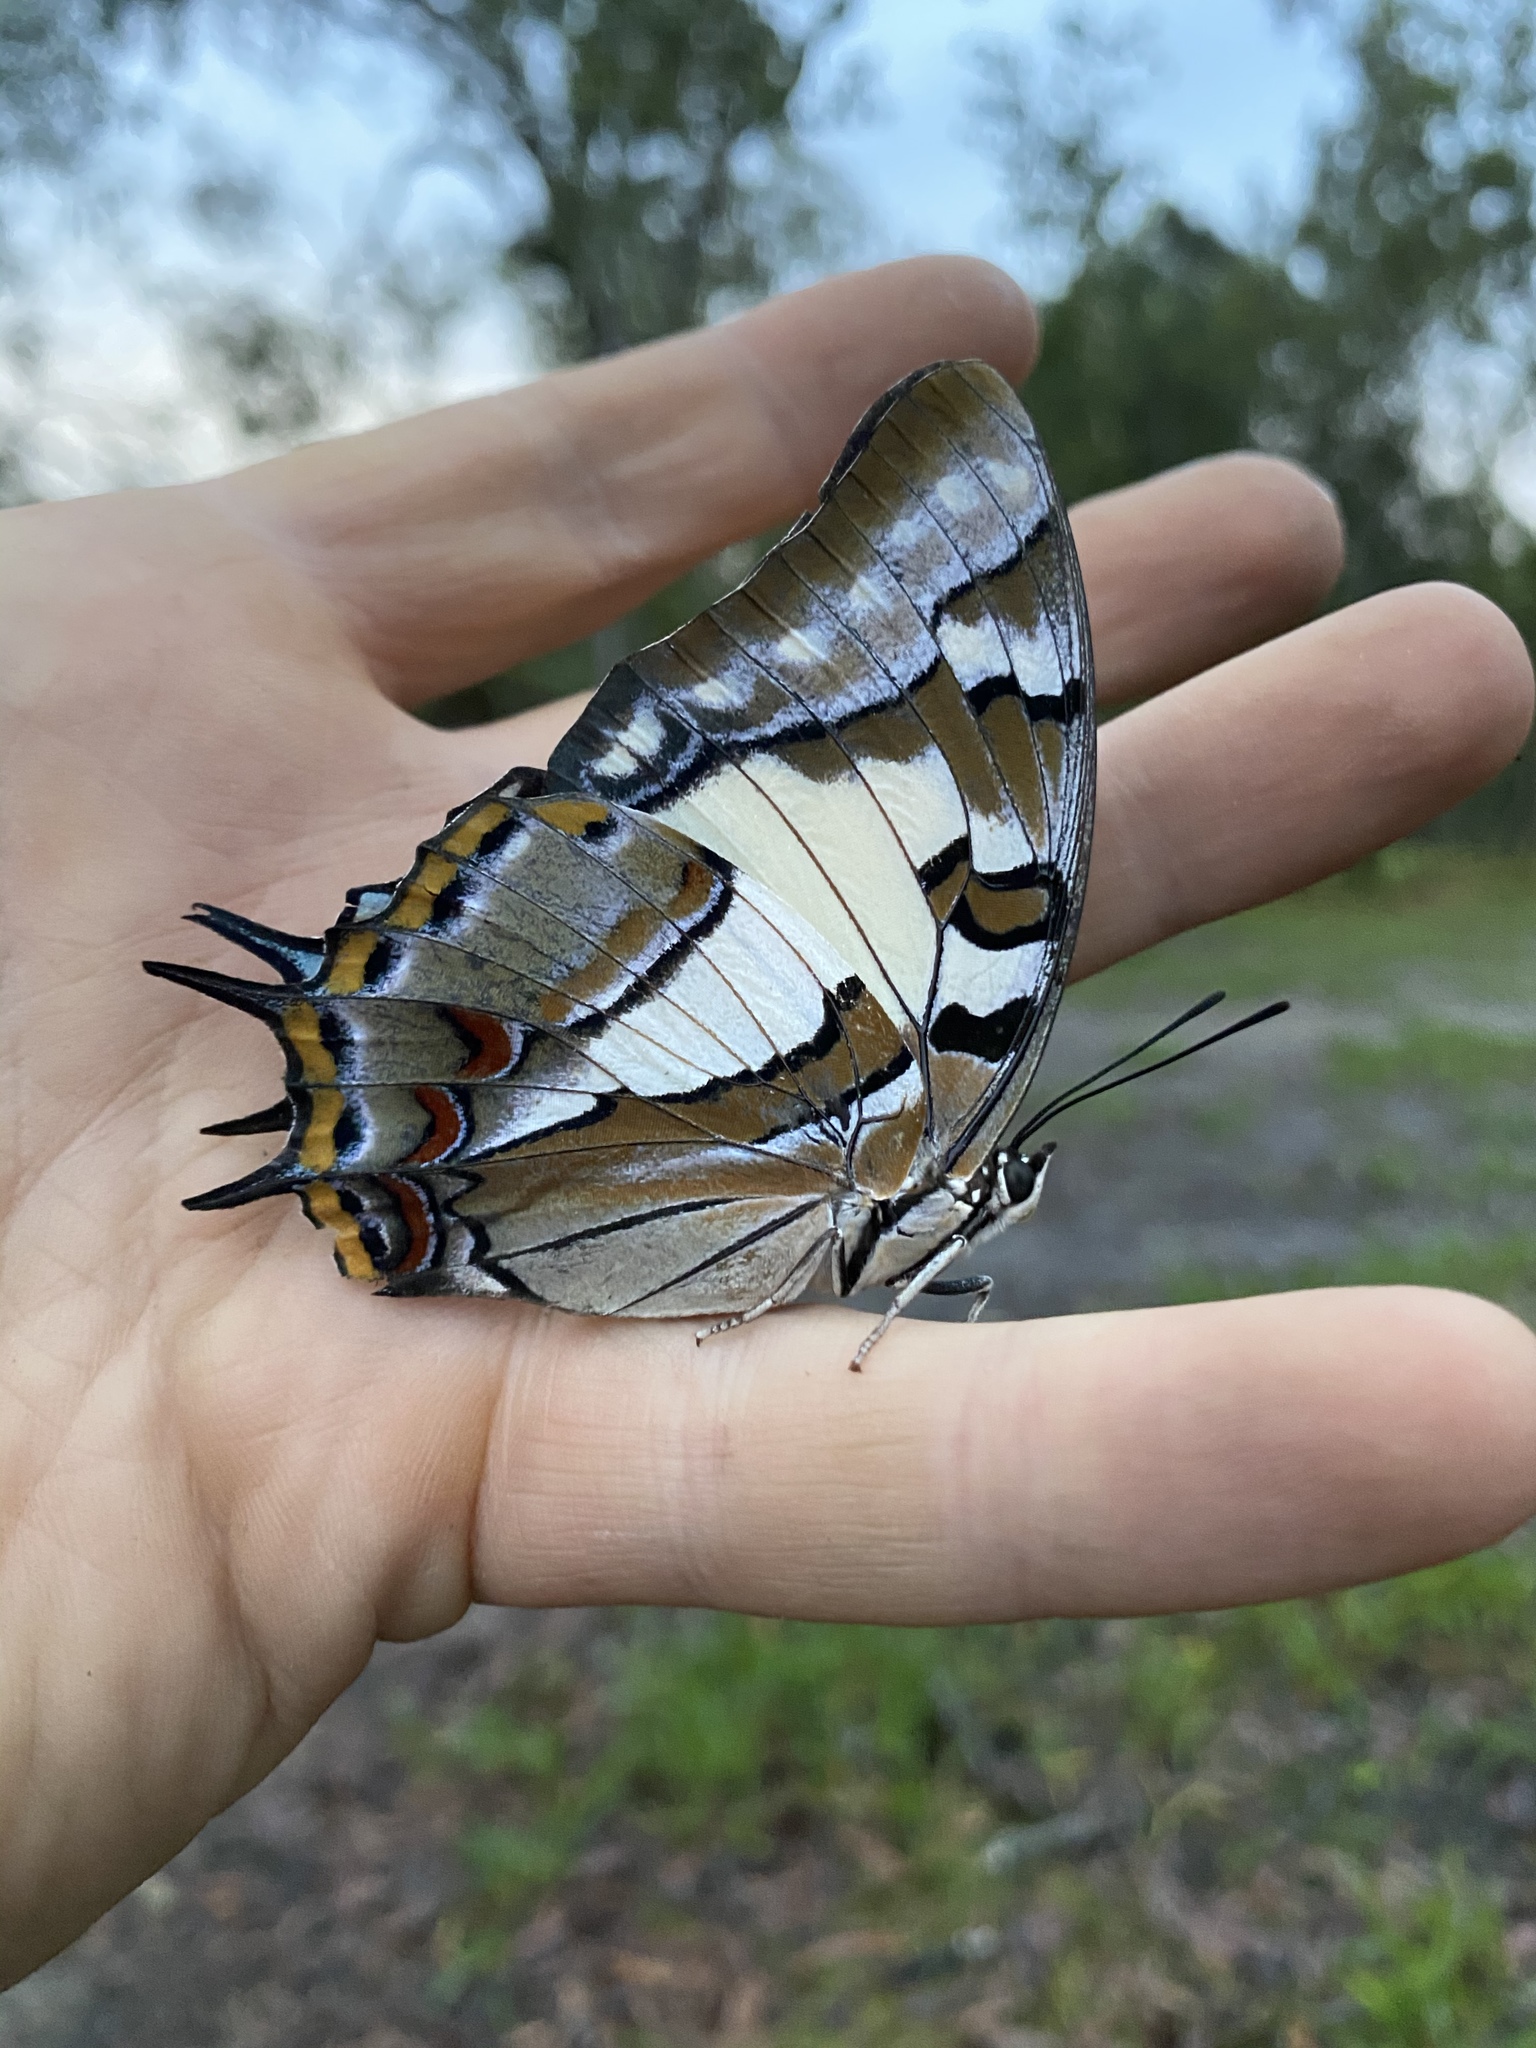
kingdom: Animalia
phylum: Arthropoda
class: Insecta
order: Lepidoptera
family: Nymphalidae
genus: Charaxes
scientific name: Charaxes
